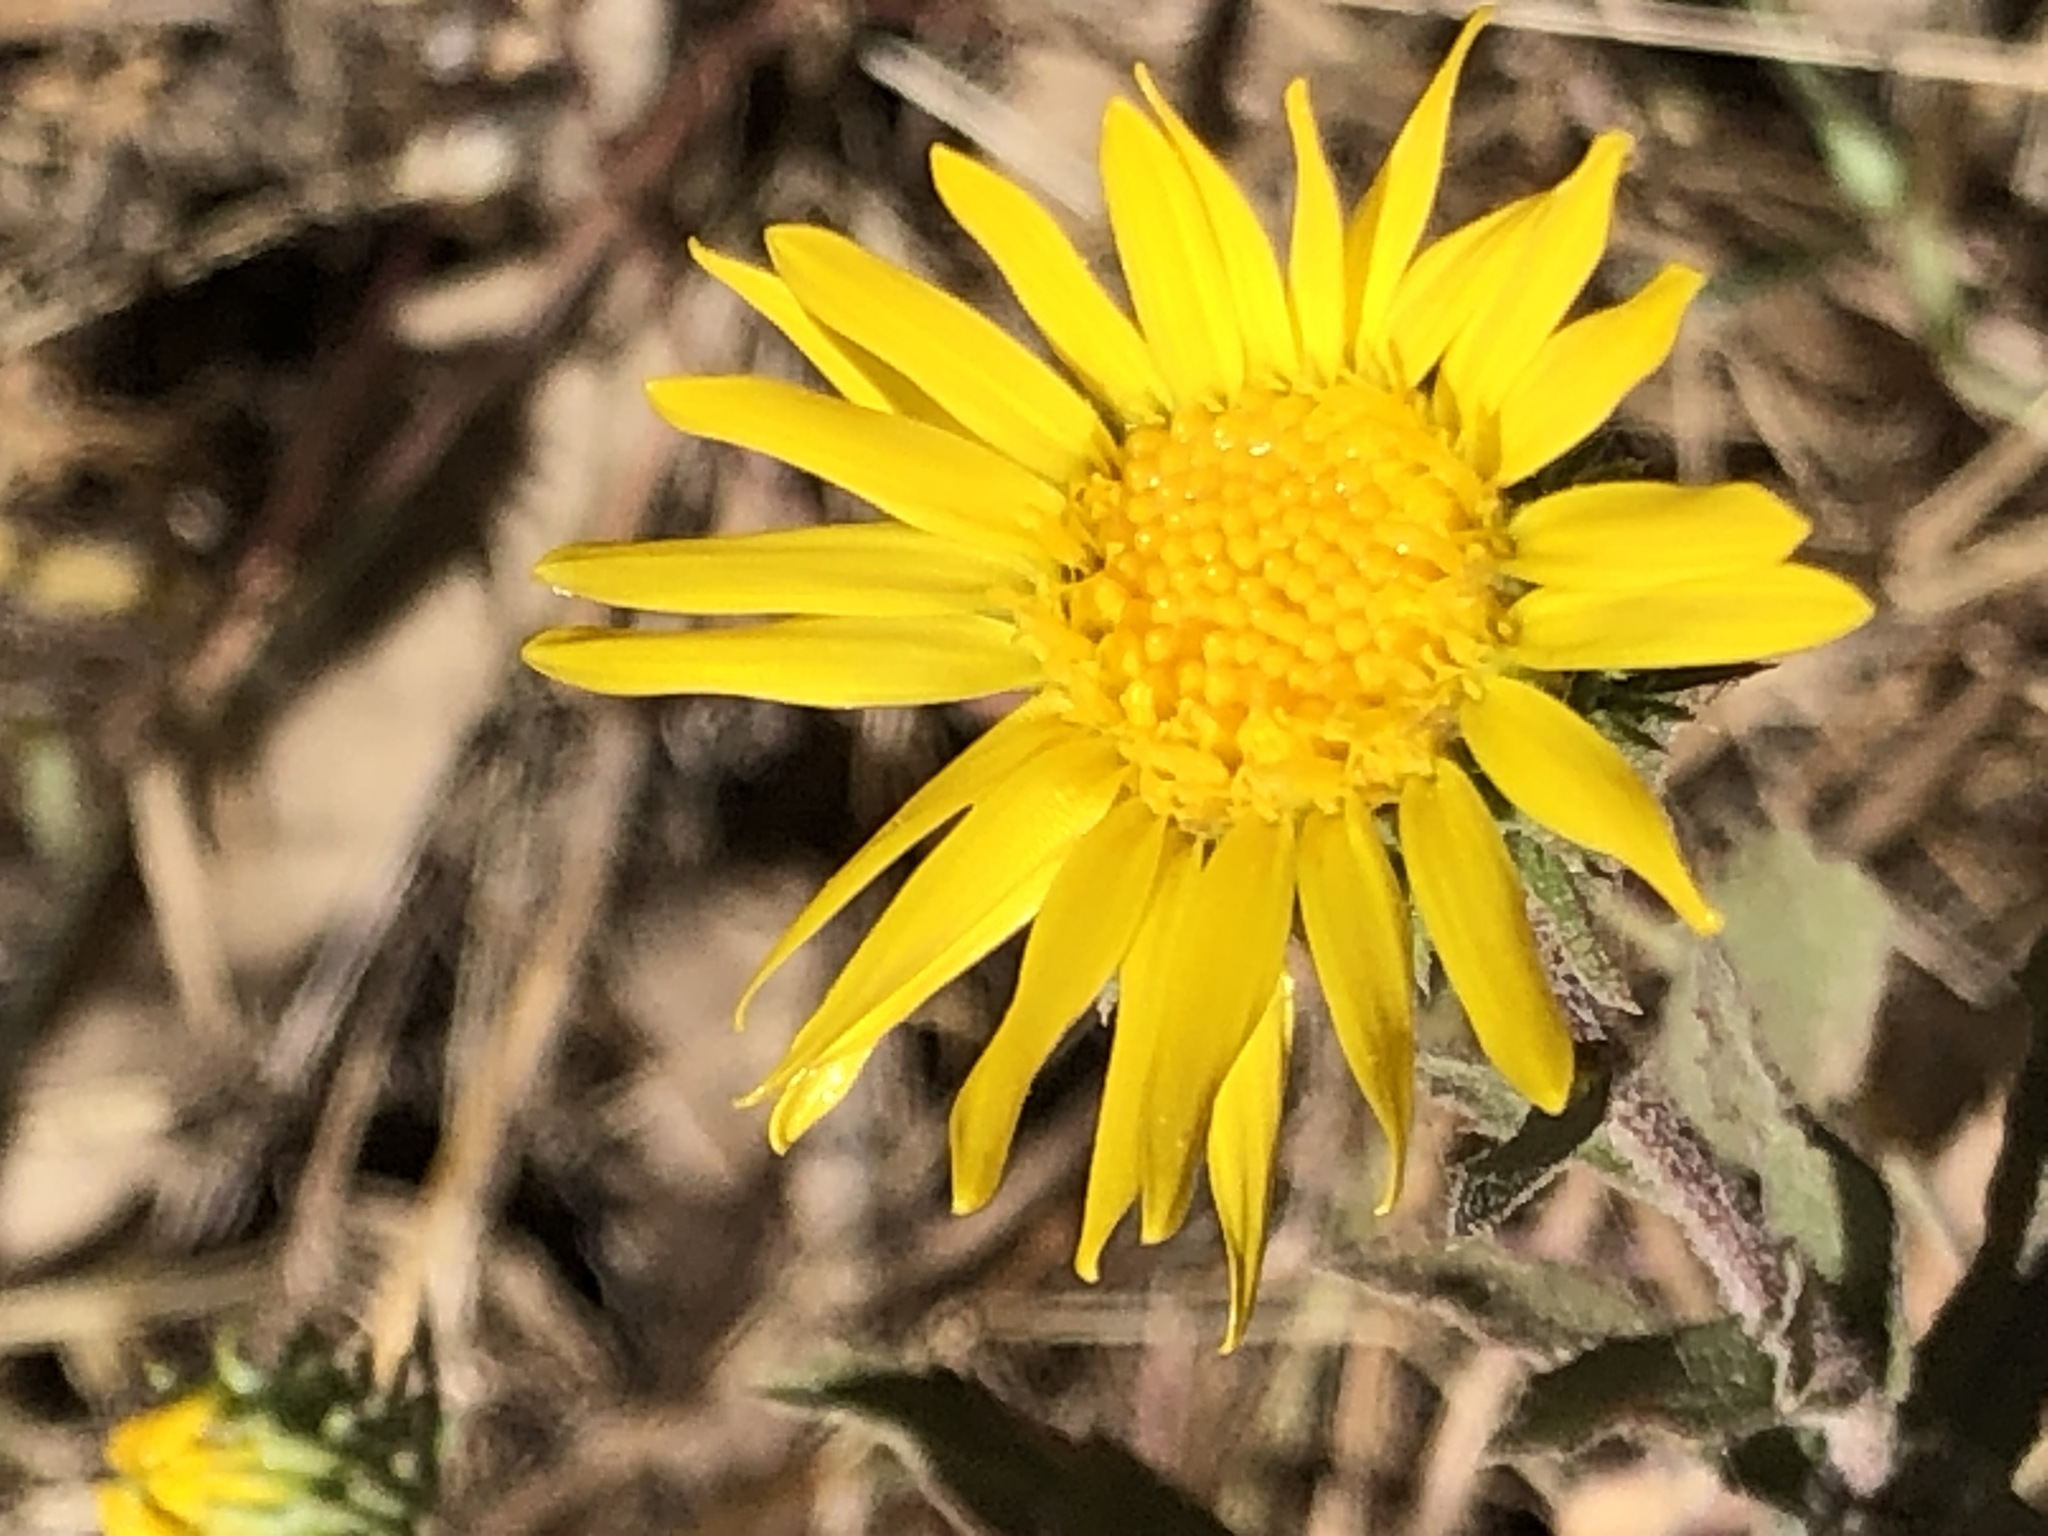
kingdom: Plantae
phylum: Tracheophyta
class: Magnoliopsida
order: Asterales
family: Asteraceae
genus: Grindelia
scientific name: Grindelia hirsutula
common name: Hairy gumweed
